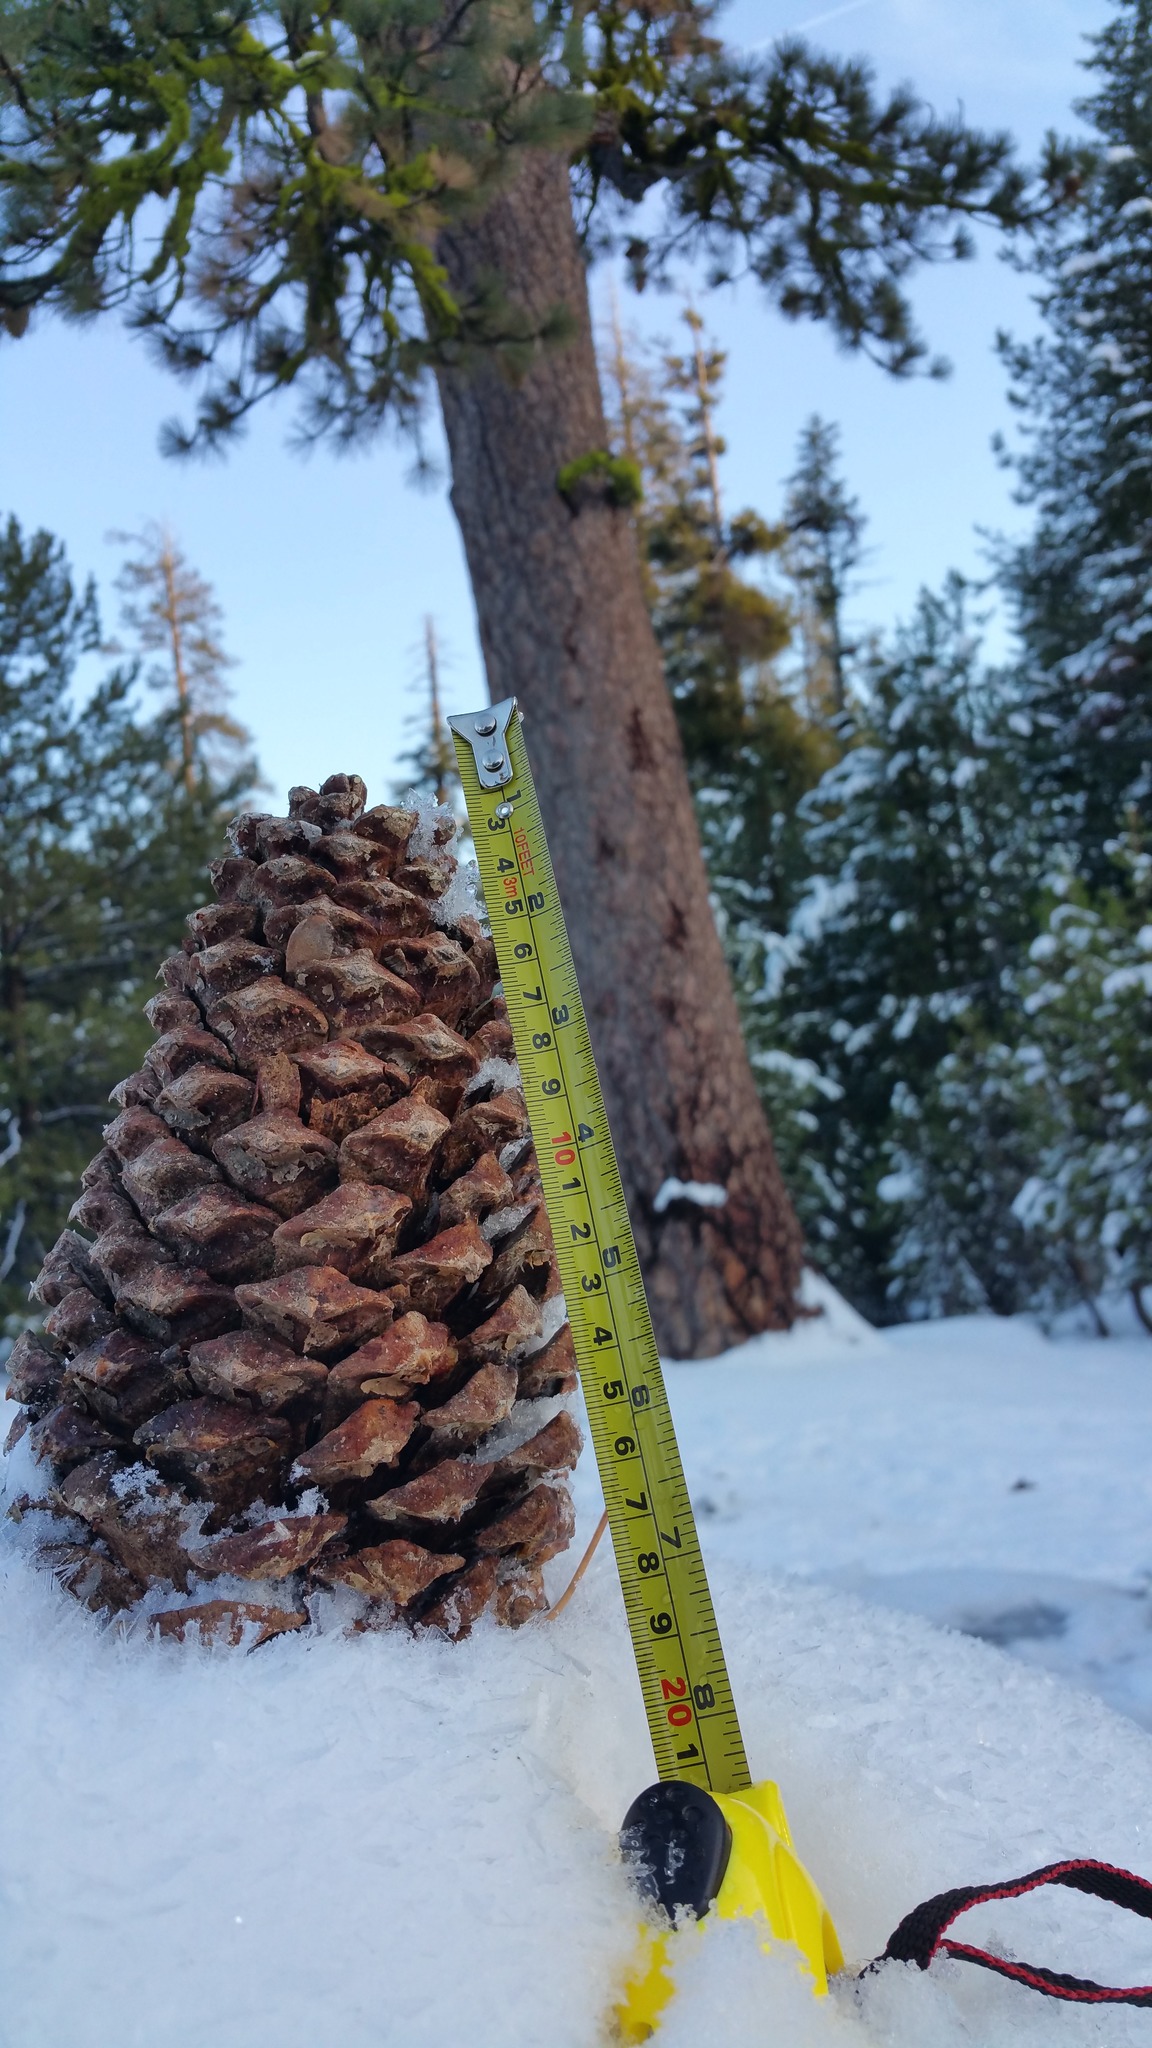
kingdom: Plantae
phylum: Tracheophyta
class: Pinopsida
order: Pinales
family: Pinaceae
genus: Pinus
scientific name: Pinus jeffreyi
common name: Jeffrey pine
